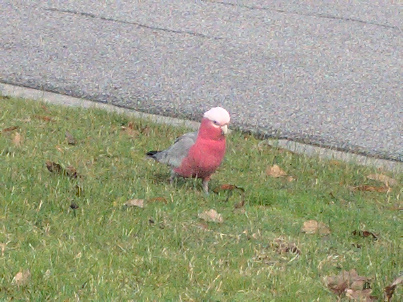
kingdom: Animalia
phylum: Chordata
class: Aves
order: Psittaciformes
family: Psittacidae
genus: Eolophus
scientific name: Eolophus roseicapilla
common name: Galah
